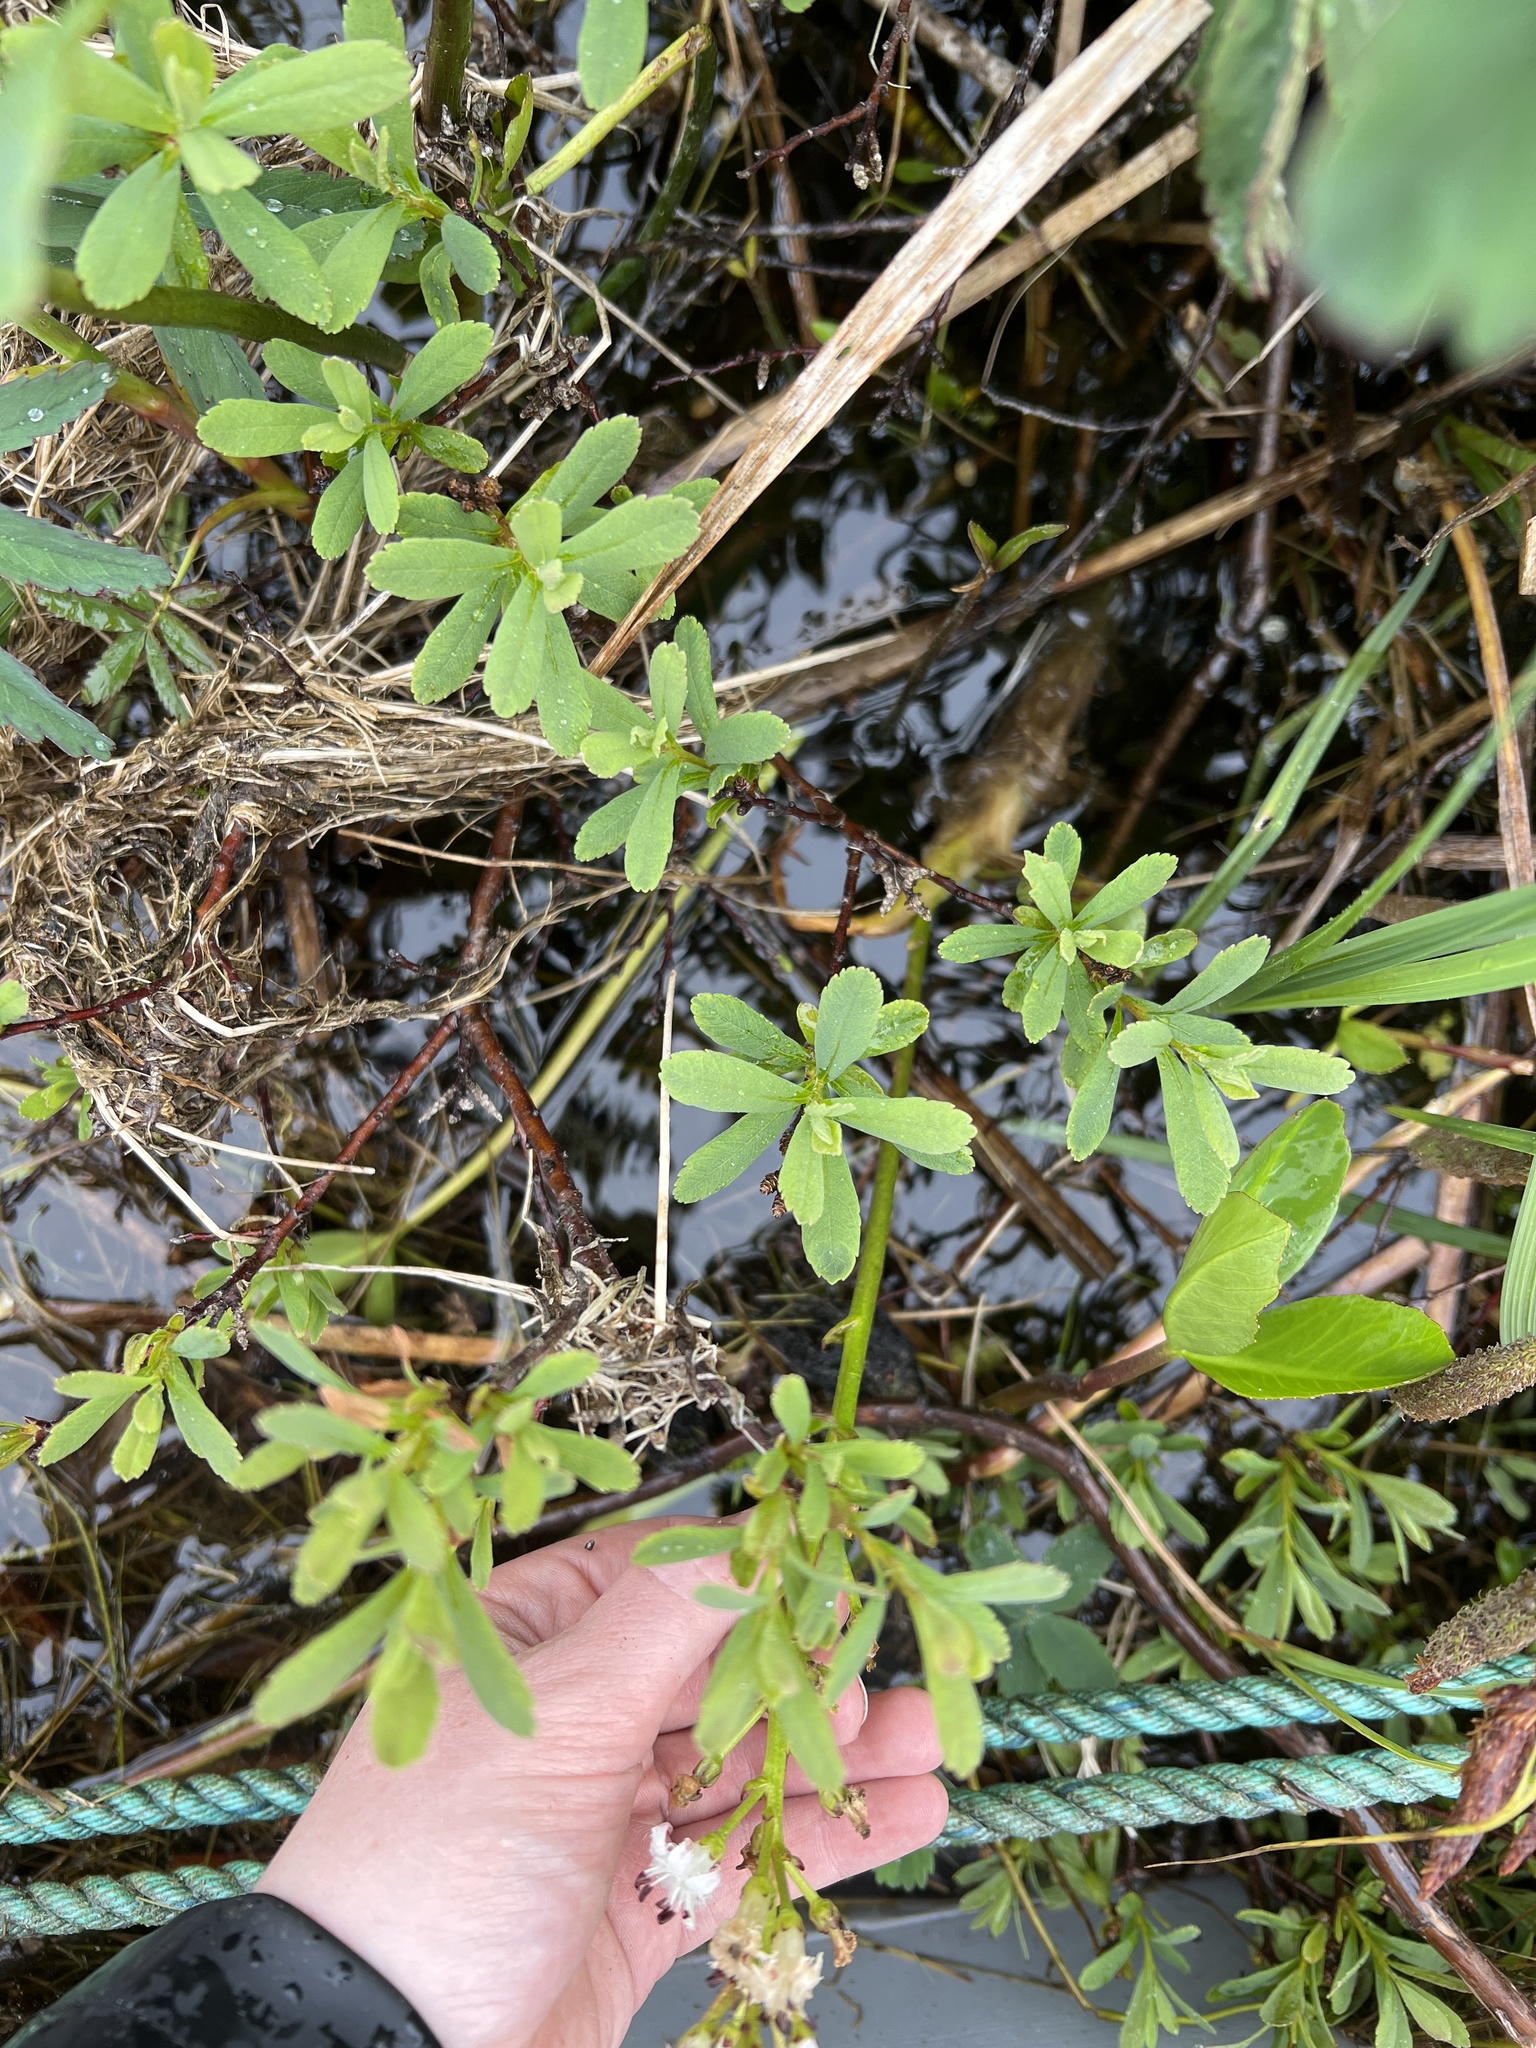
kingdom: Plantae
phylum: Tracheophyta
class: Magnoliopsida
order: Asterales
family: Menyanthaceae
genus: Menyanthes
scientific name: Menyanthes trifoliata
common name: Bogbean
